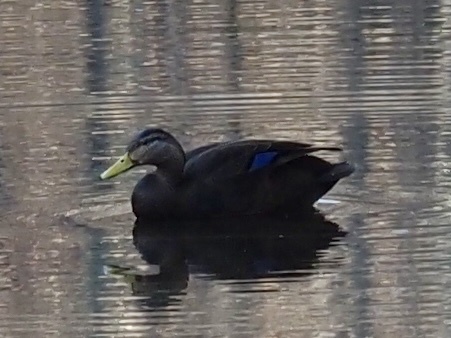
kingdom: Animalia
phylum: Chordata
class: Aves
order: Anseriformes
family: Anatidae
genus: Anas
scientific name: Anas rubripes
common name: American black duck
